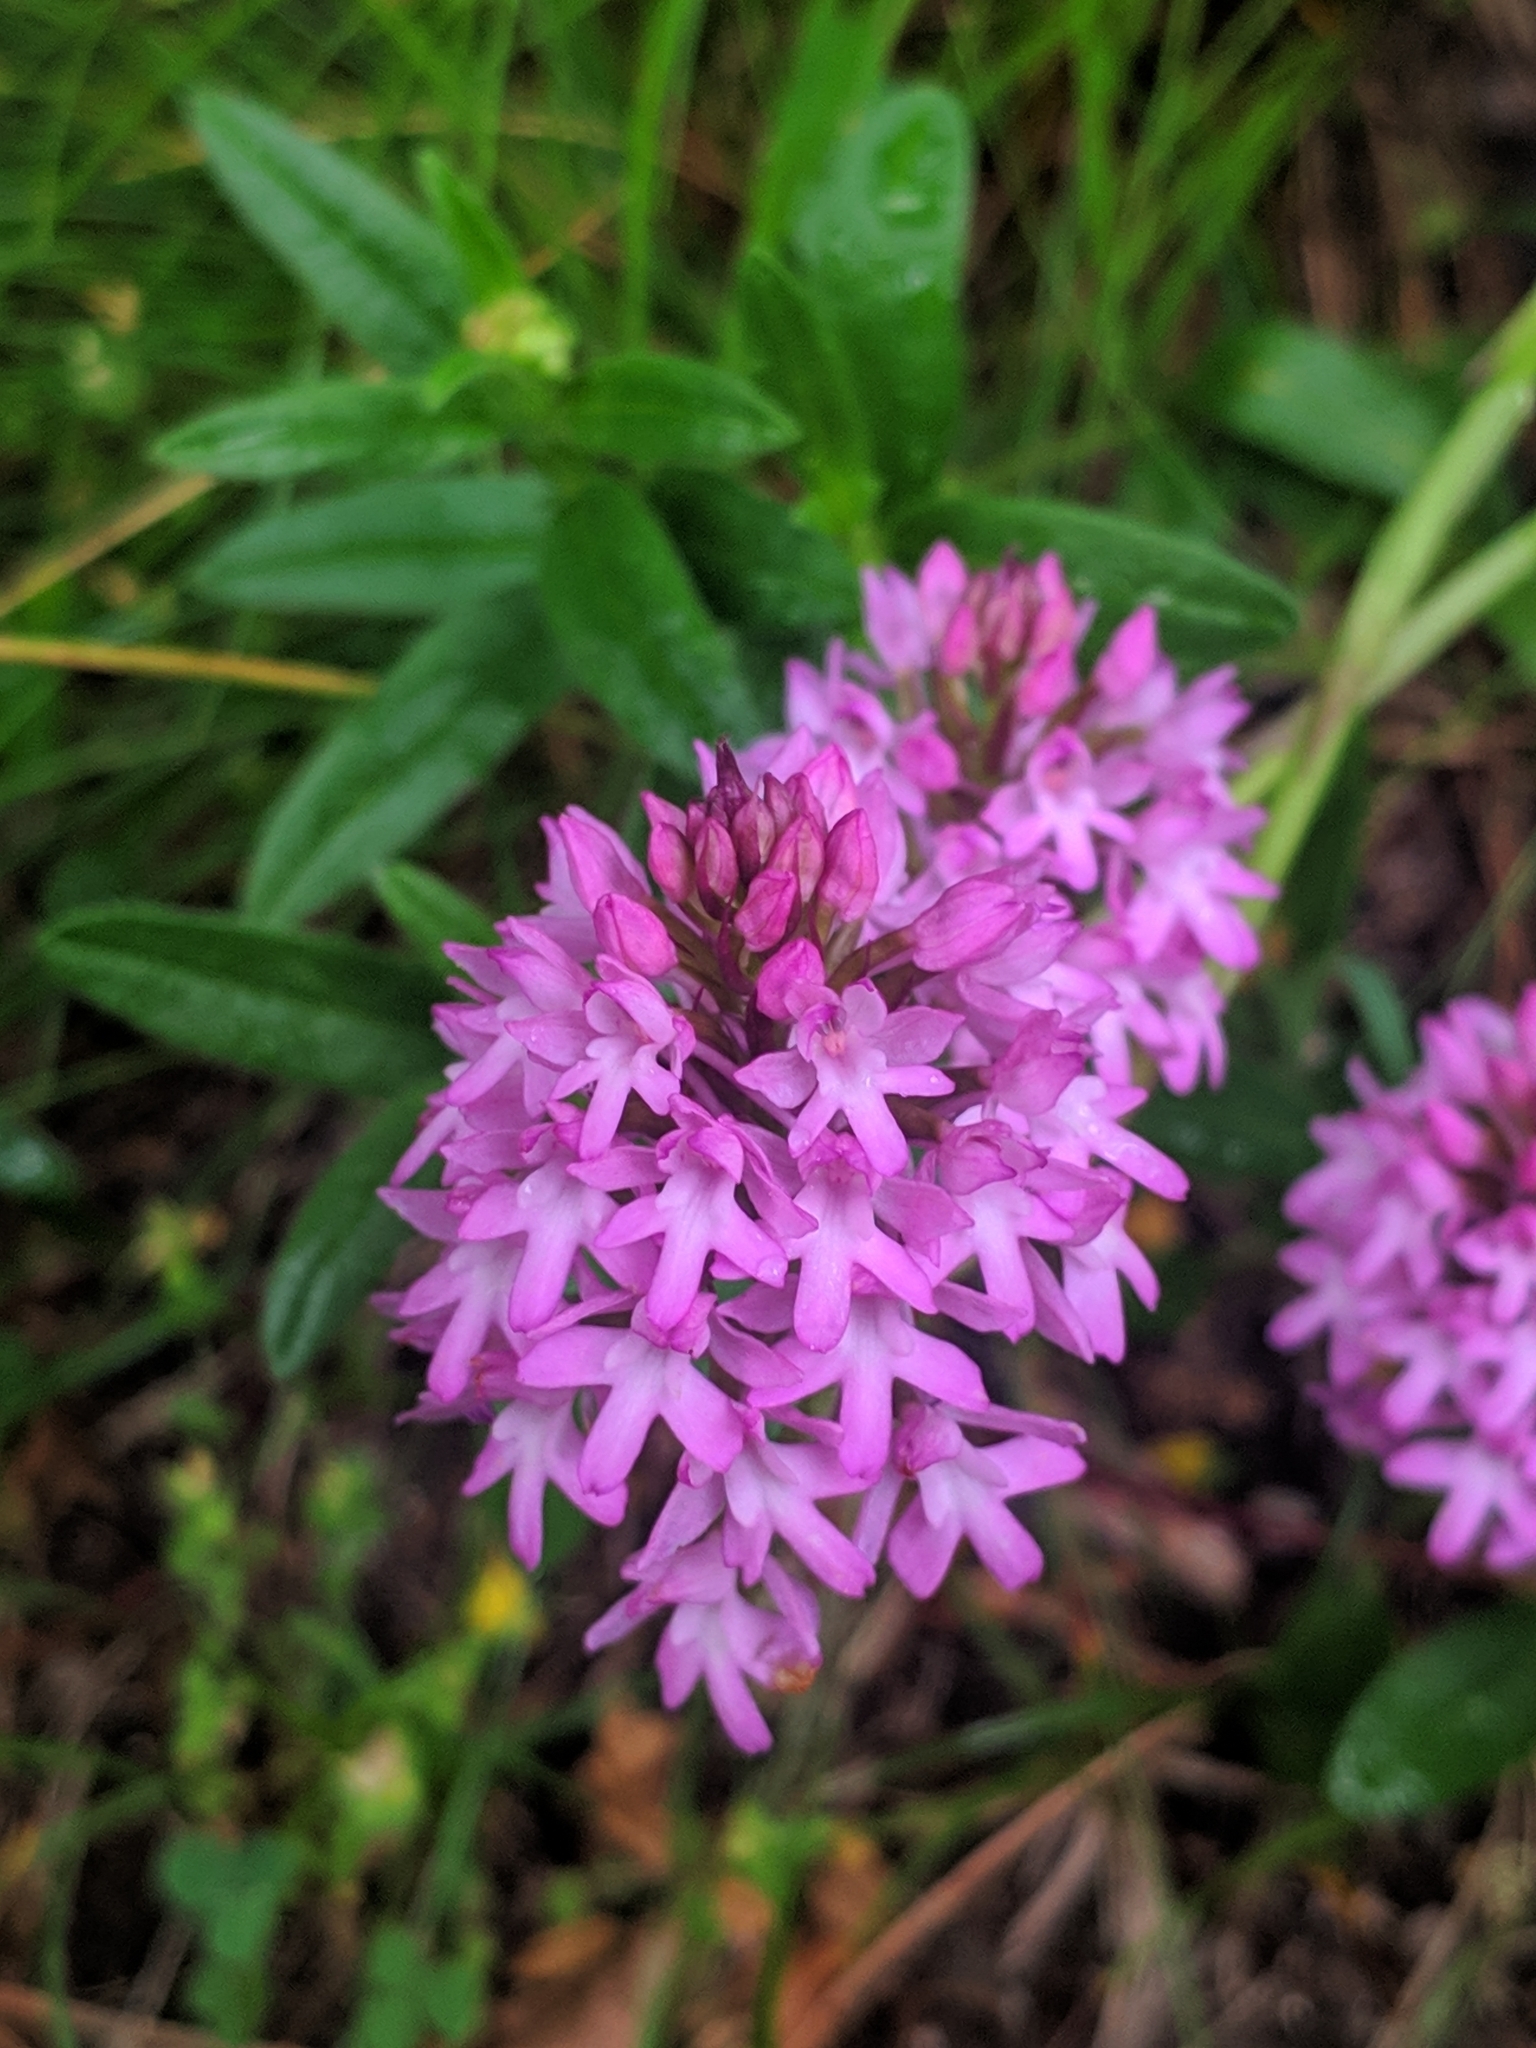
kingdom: Plantae
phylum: Tracheophyta
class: Liliopsida
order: Asparagales
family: Orchidaceae
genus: Anacamptis
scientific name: Anacamptis pyramidalis
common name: Pyramidal orchid
